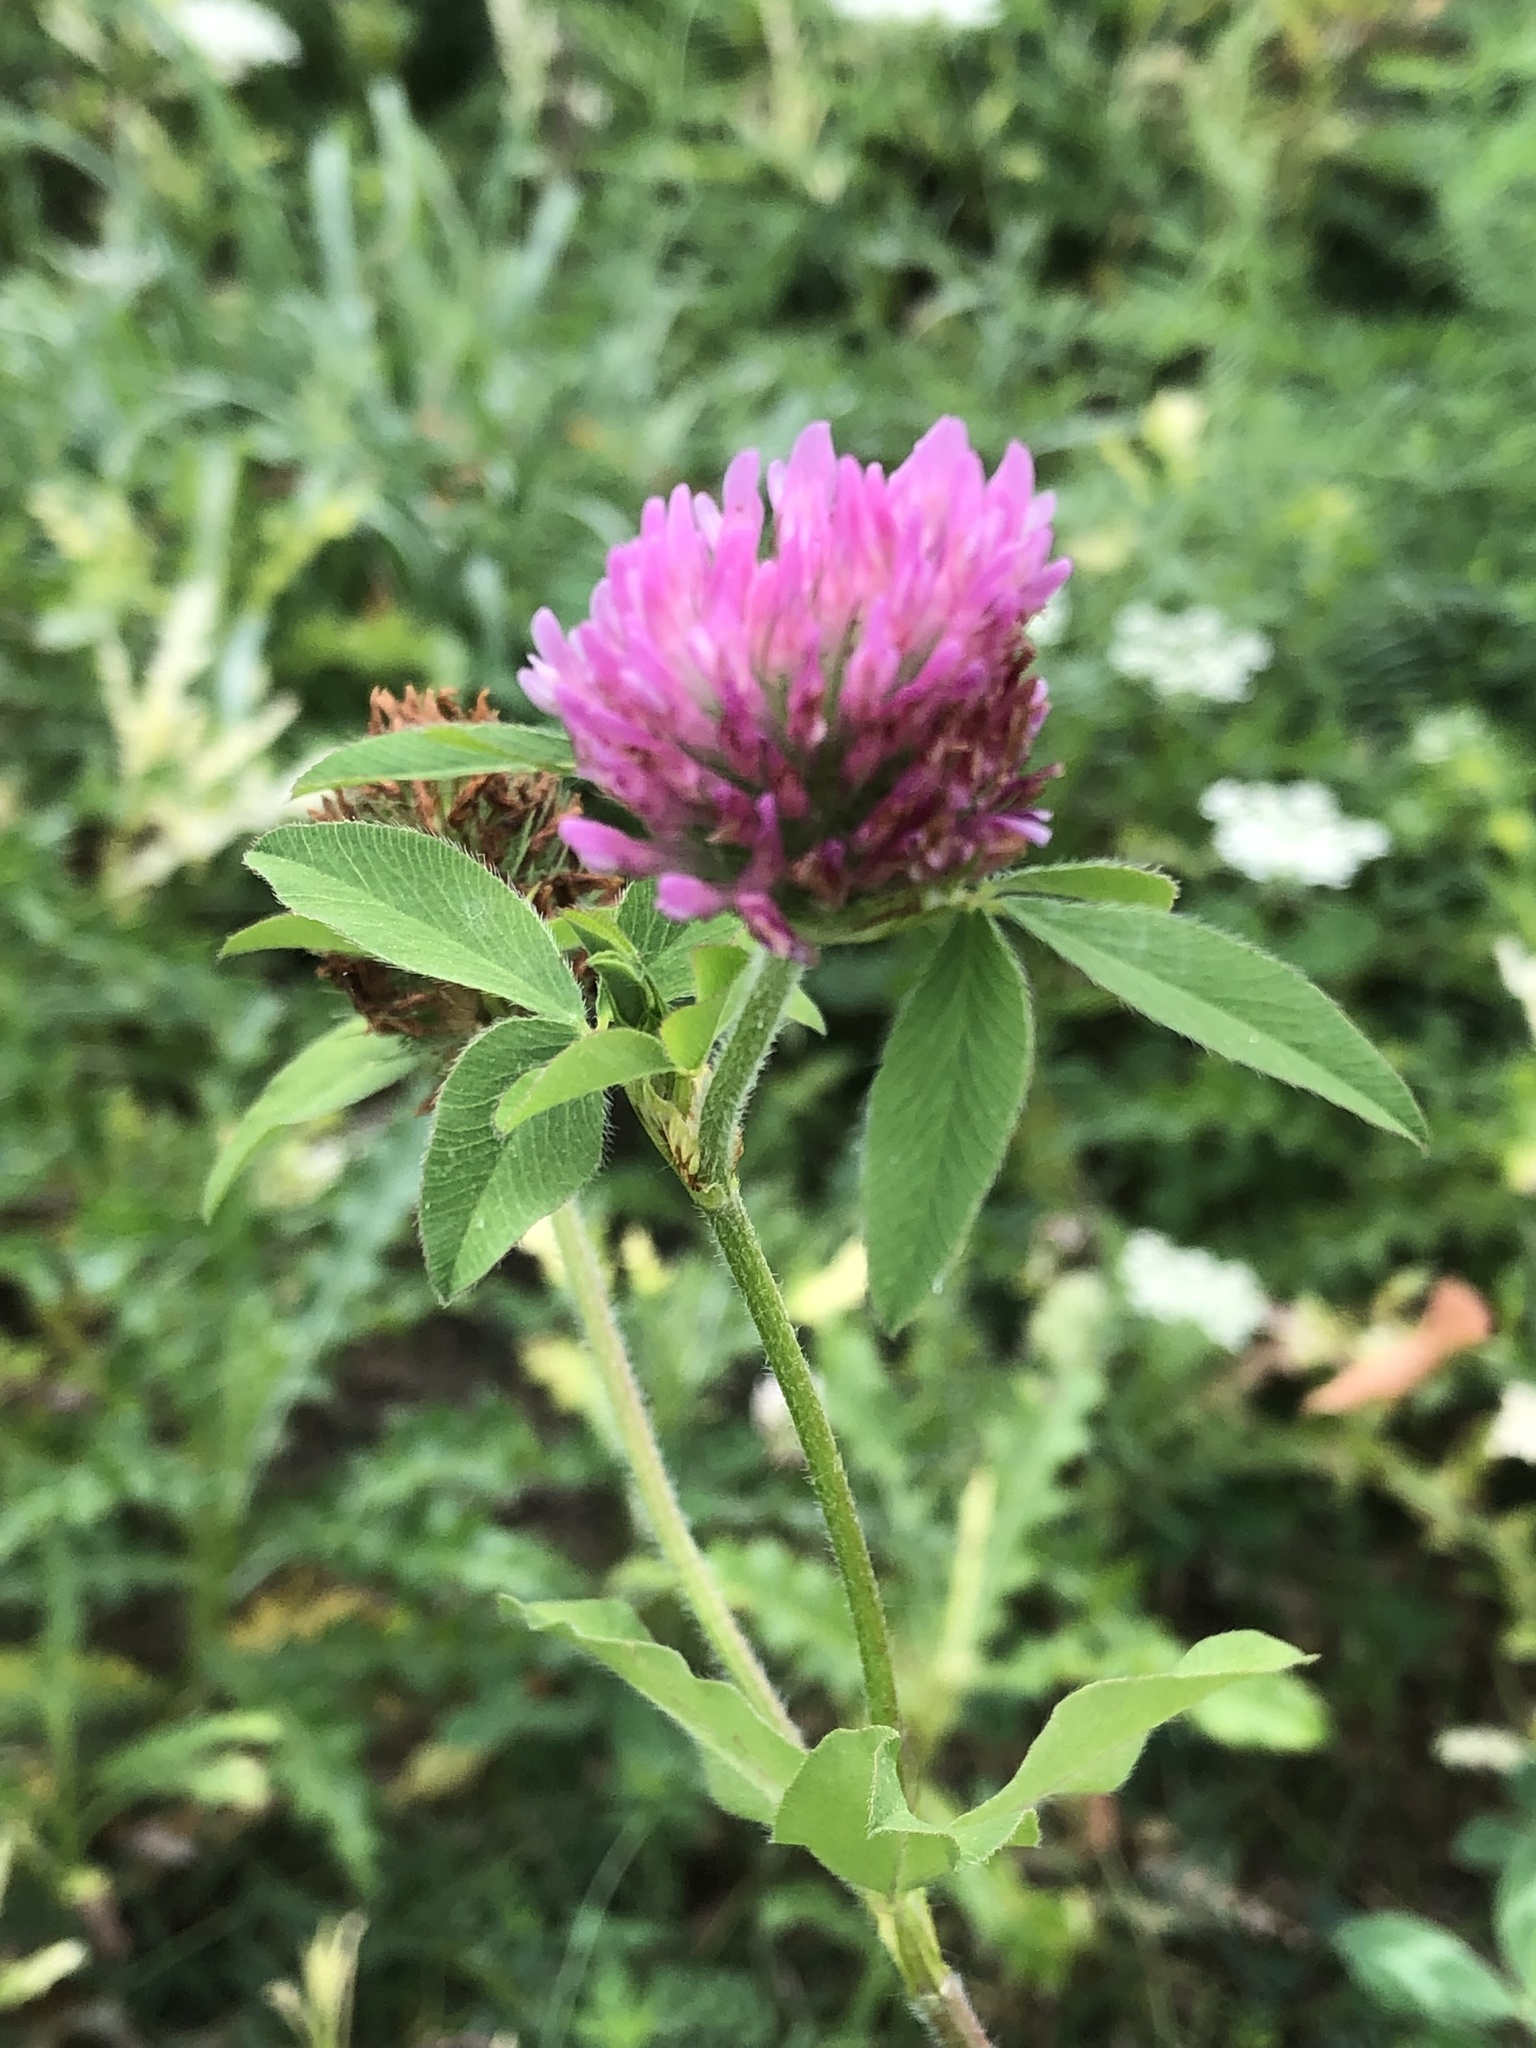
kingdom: Plantae
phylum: Tracheophyta
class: Magnoliopsida
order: Fabales
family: Fabaceae
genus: Trifolium
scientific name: Trifolium pratense
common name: Red clover
